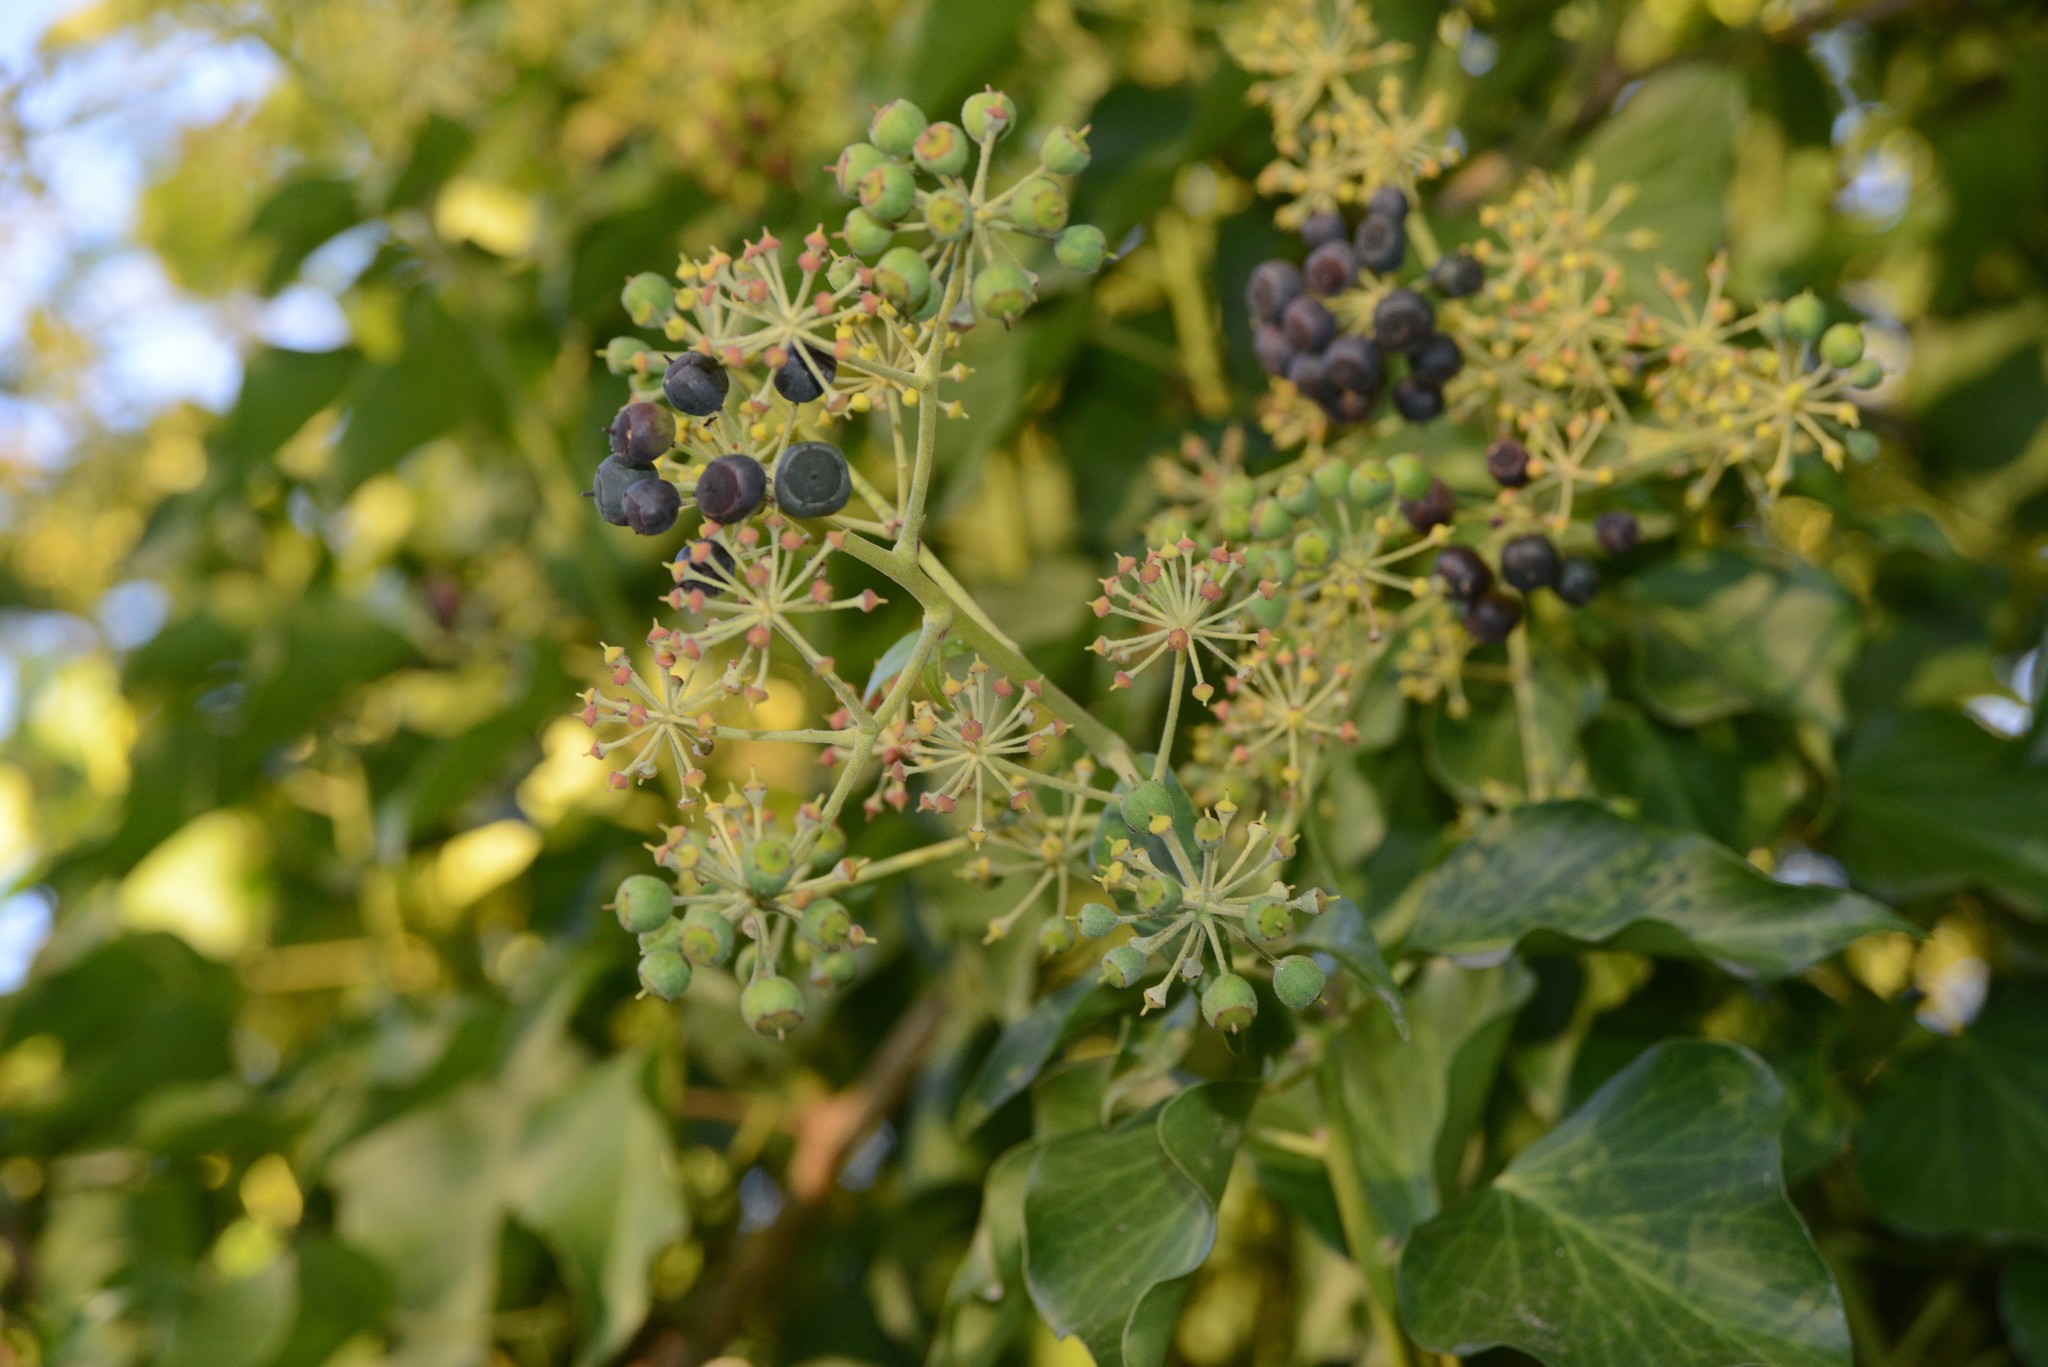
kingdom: Plantae
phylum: Tracheophyta
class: Magnoliopsida
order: Apiales
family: Araliaceae
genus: Hedera
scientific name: Hedera helix
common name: Ivy
